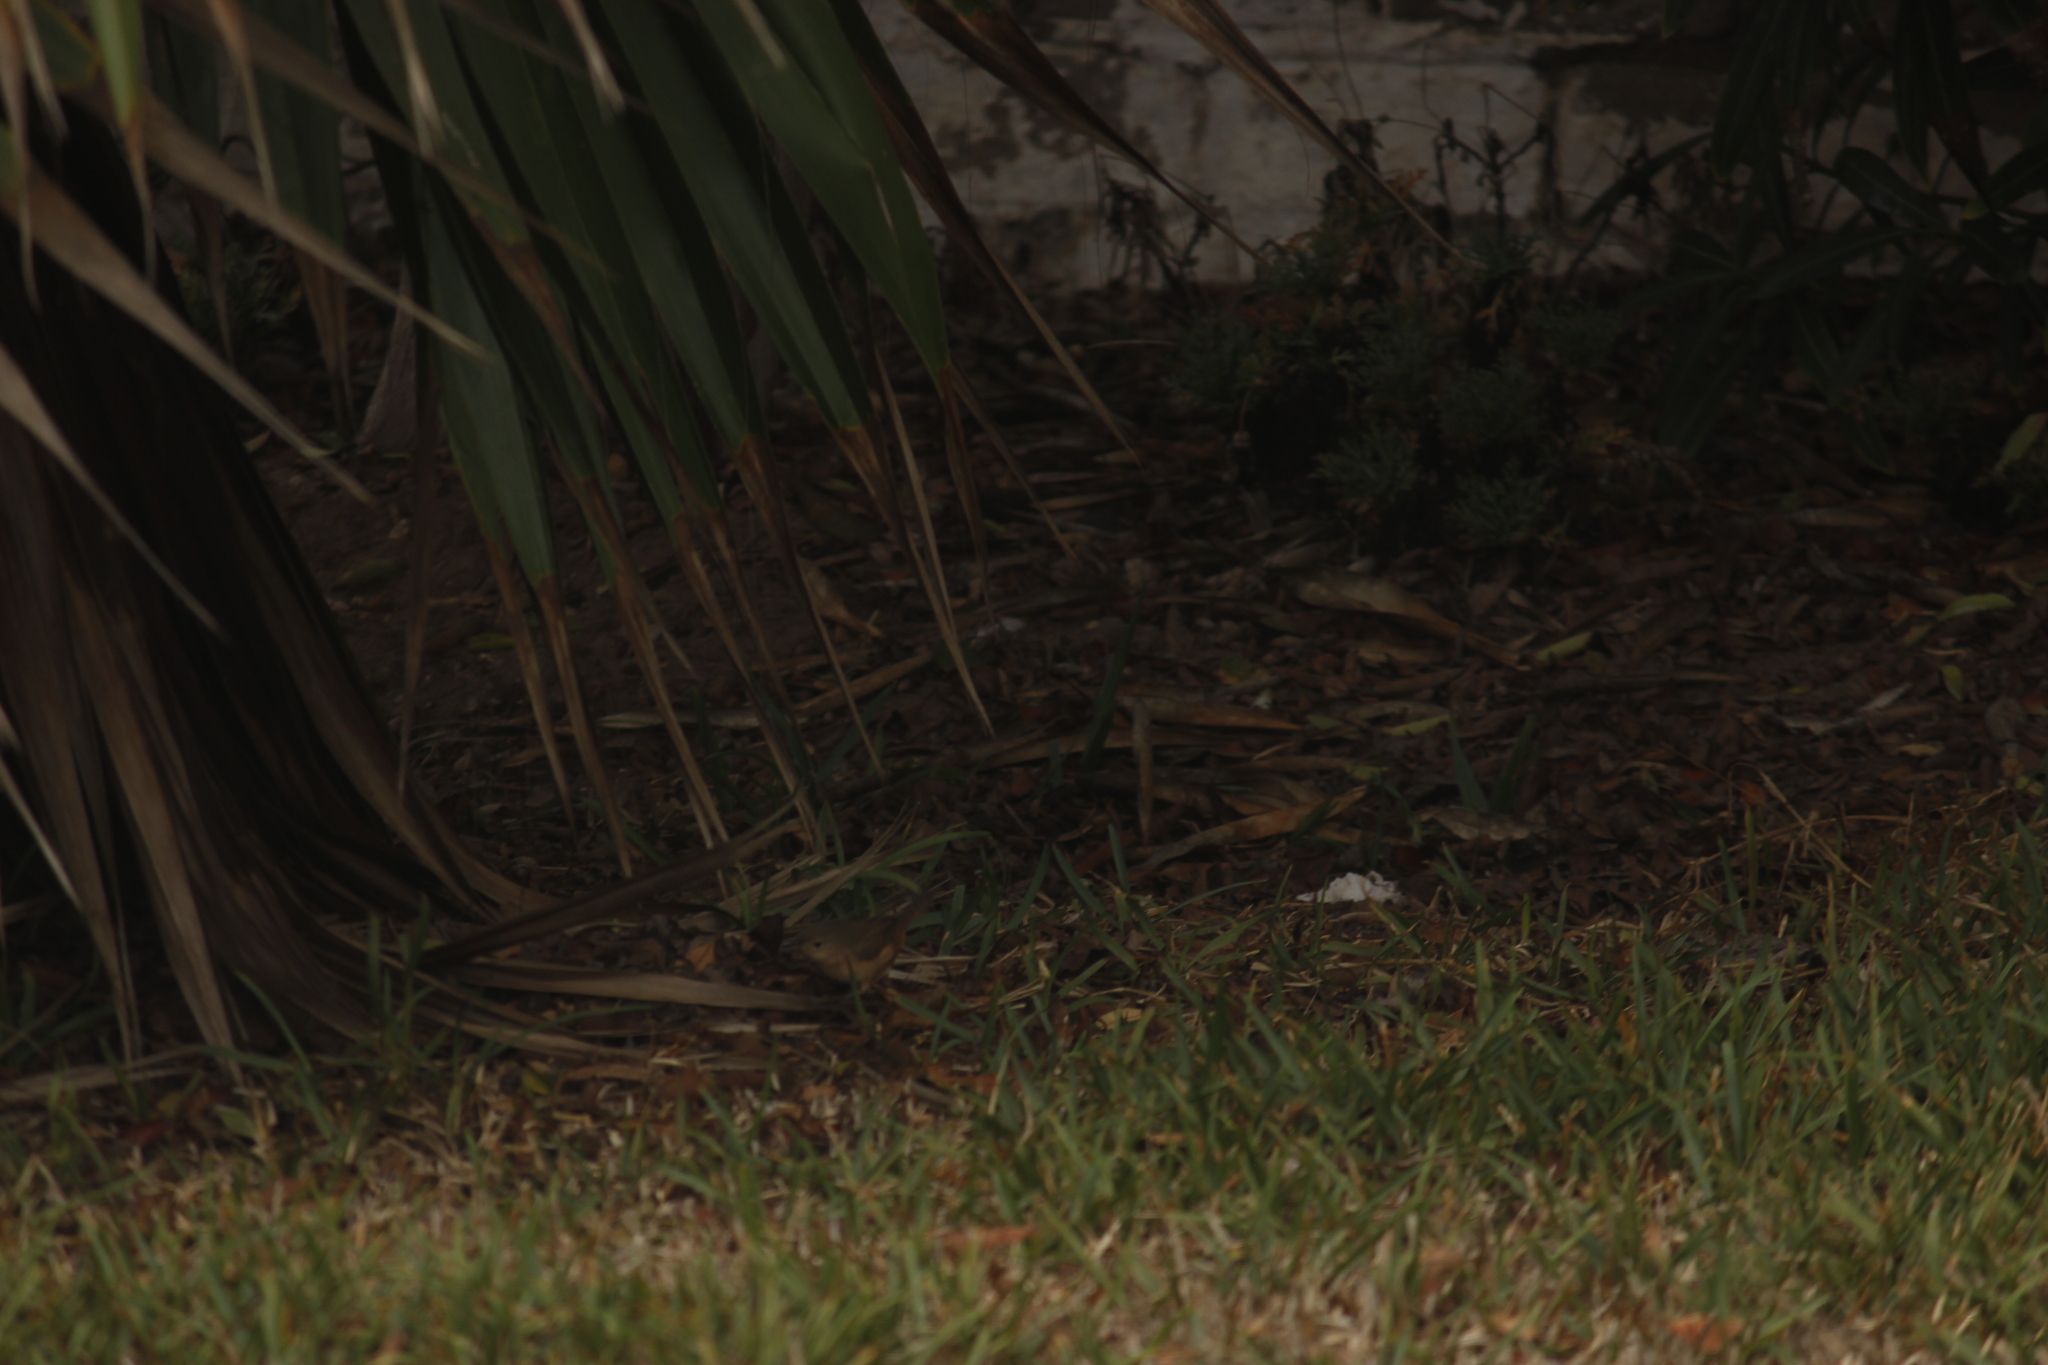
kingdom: Animalia
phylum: Chordata
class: Aves
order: Passeriformes
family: Troglodytidae
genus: Troglodytes
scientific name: Troglodytes aedon
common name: House wren
